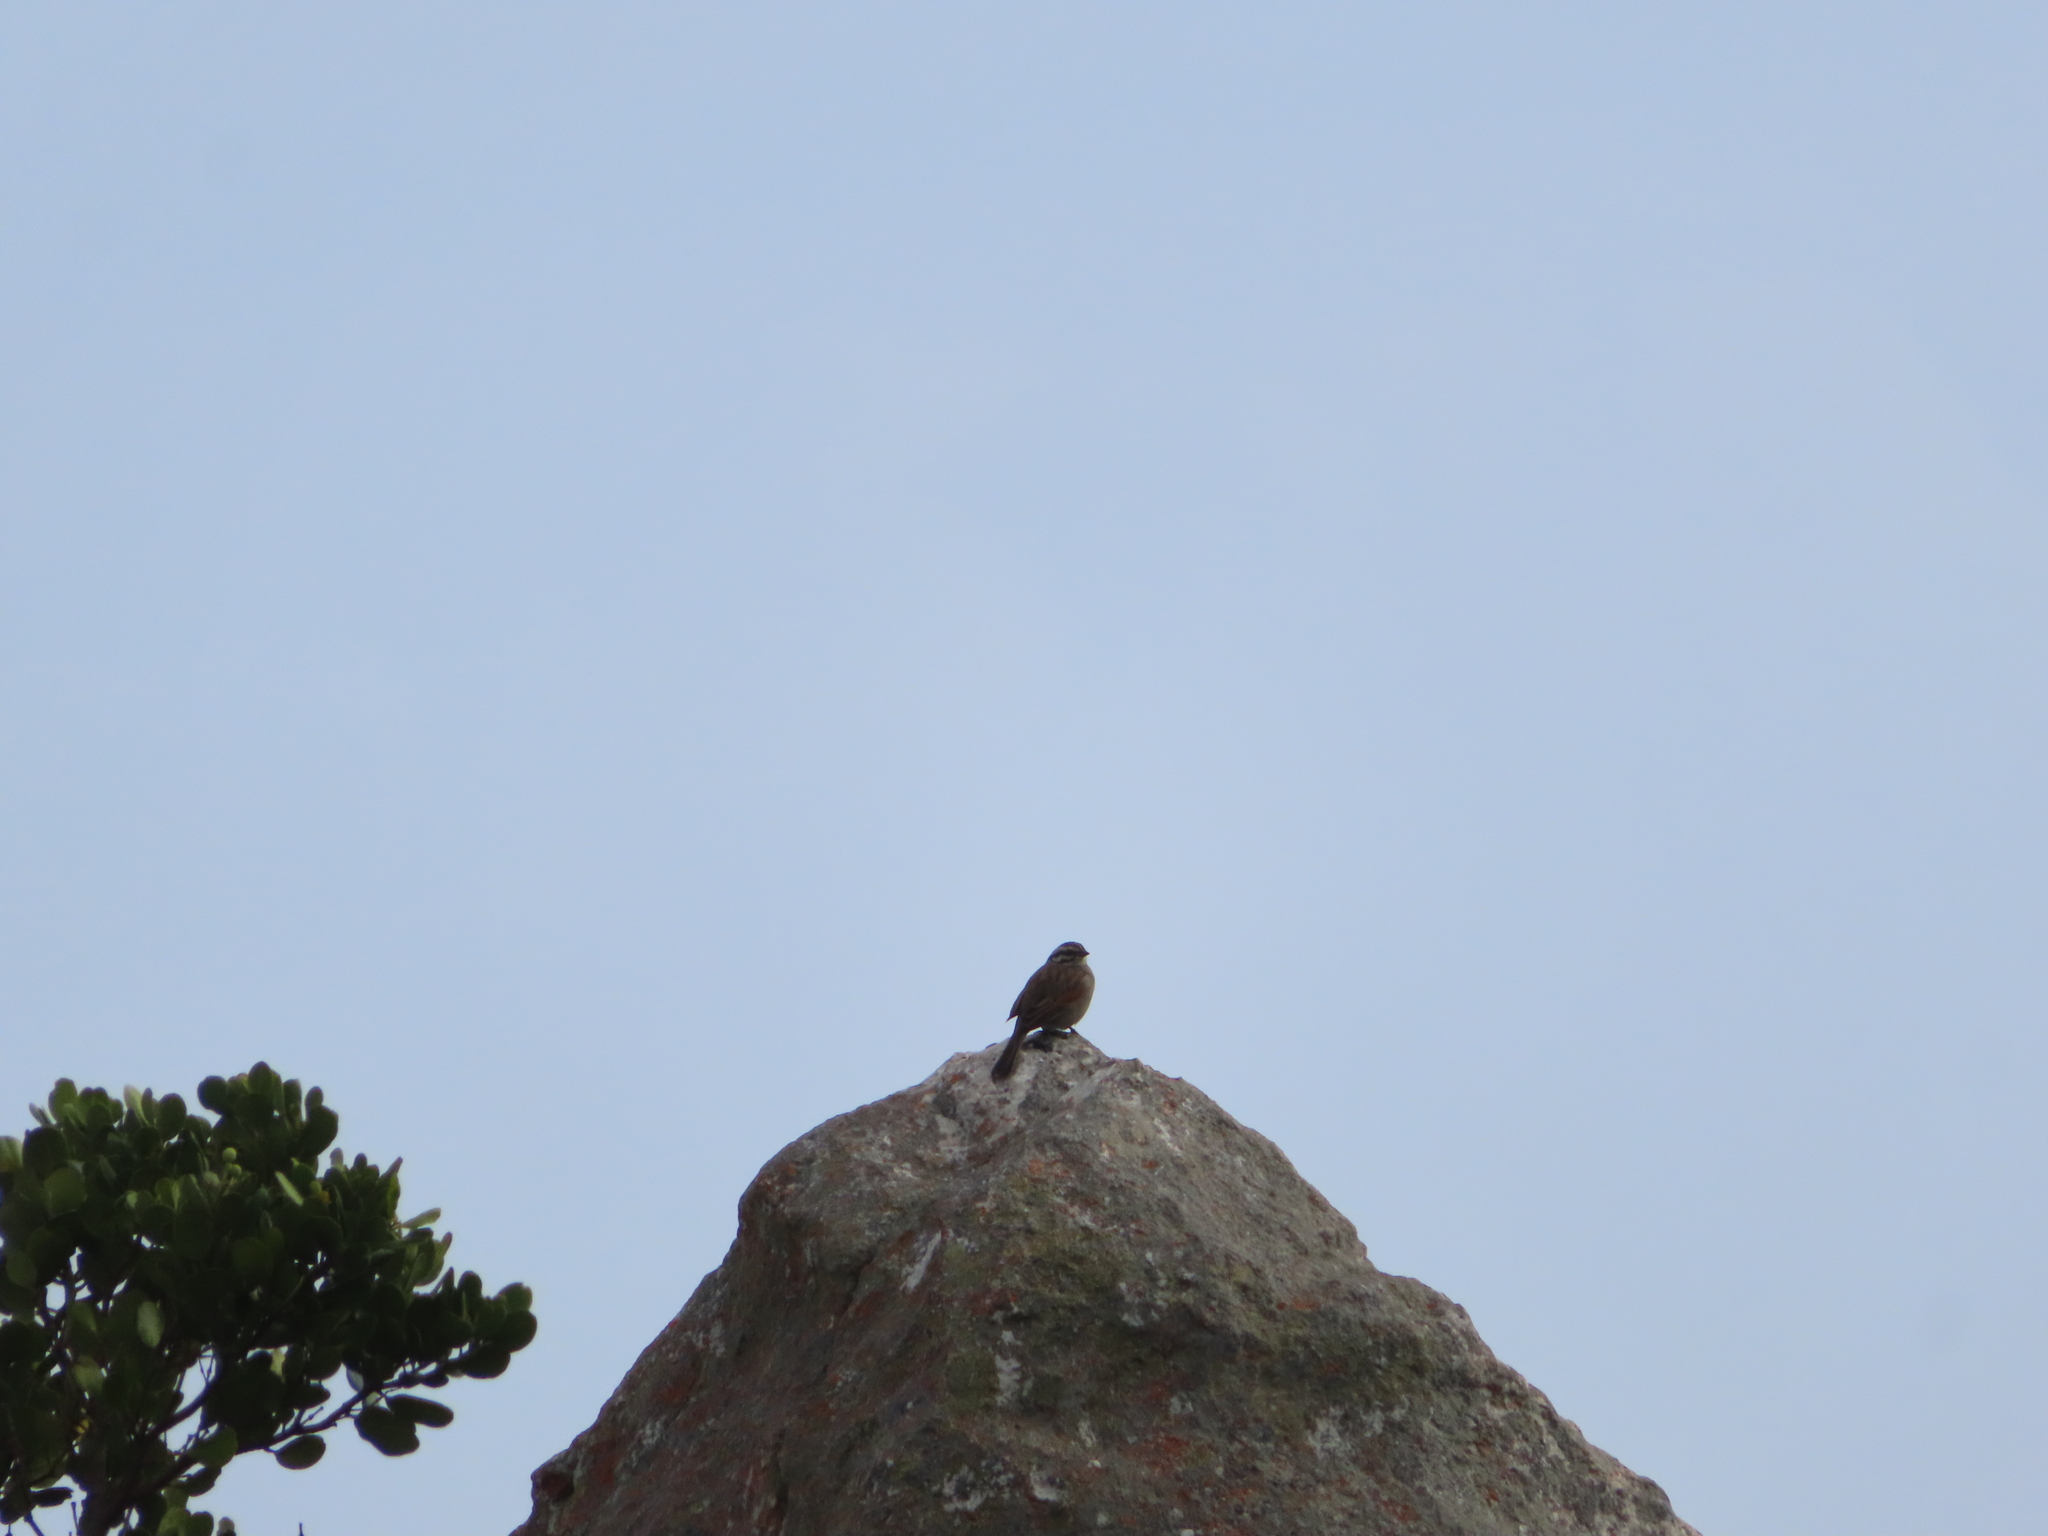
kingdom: Animalia
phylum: Chordata
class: Aves
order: Passeriformes
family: Emberizidae
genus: Emberiza
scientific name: Emberiza capensis
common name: Cape bunting
